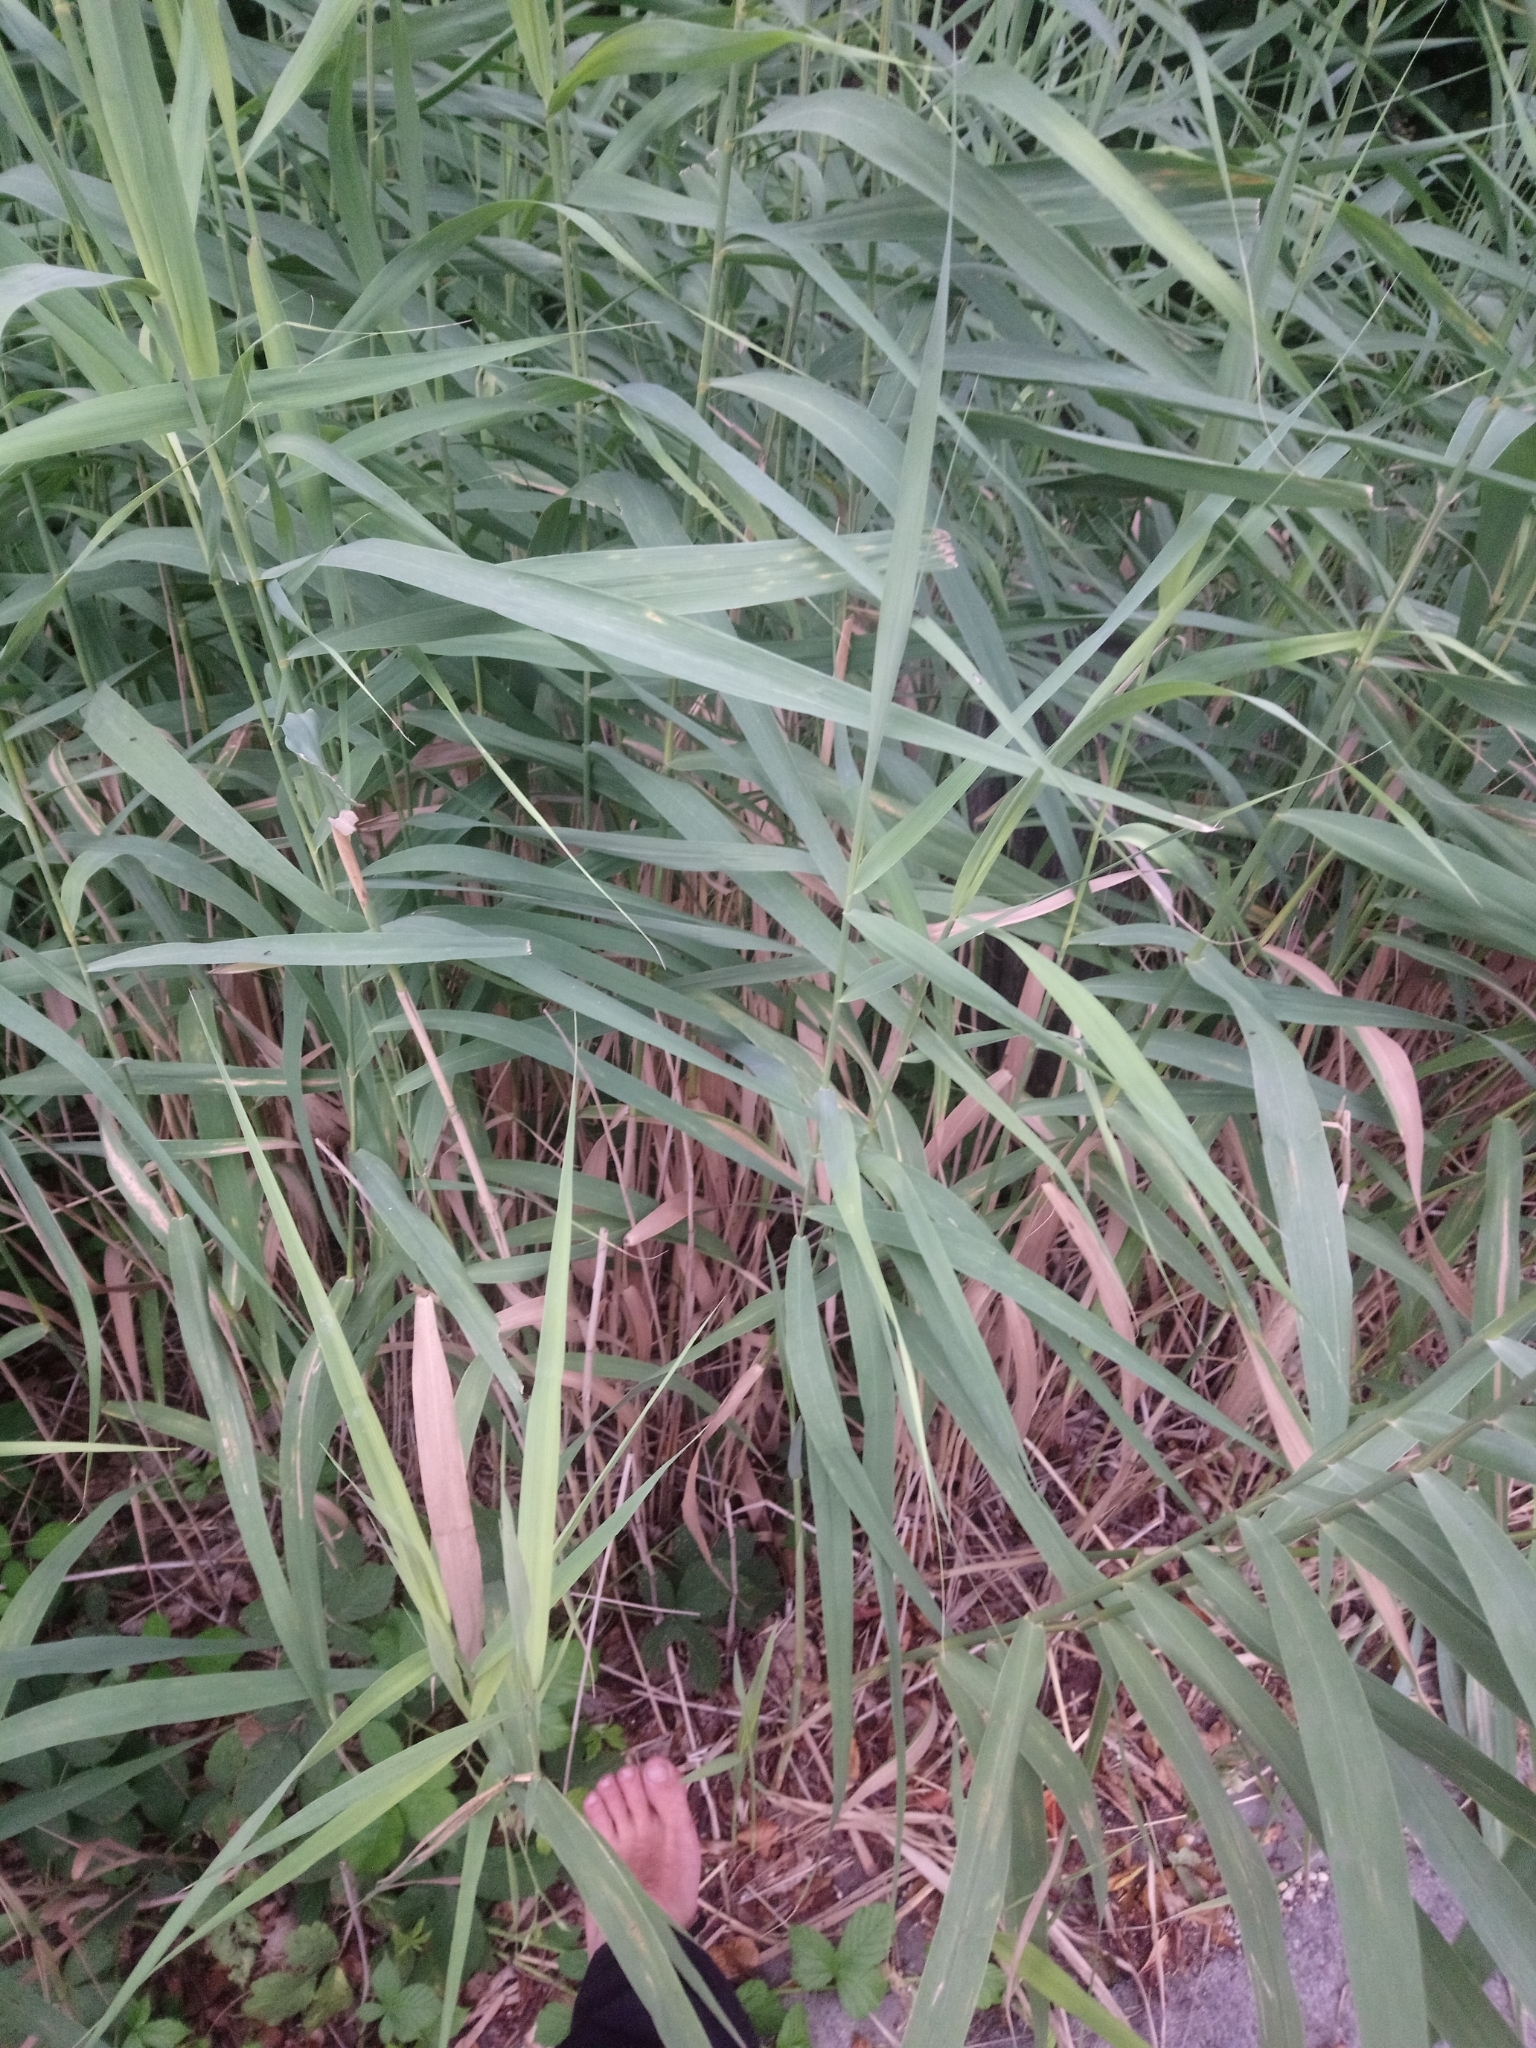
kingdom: Plantae
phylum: Tracheophyta
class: Liliopsida
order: Poales
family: Poaceae
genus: Phragmites
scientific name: Phragmites australis
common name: Common reed
